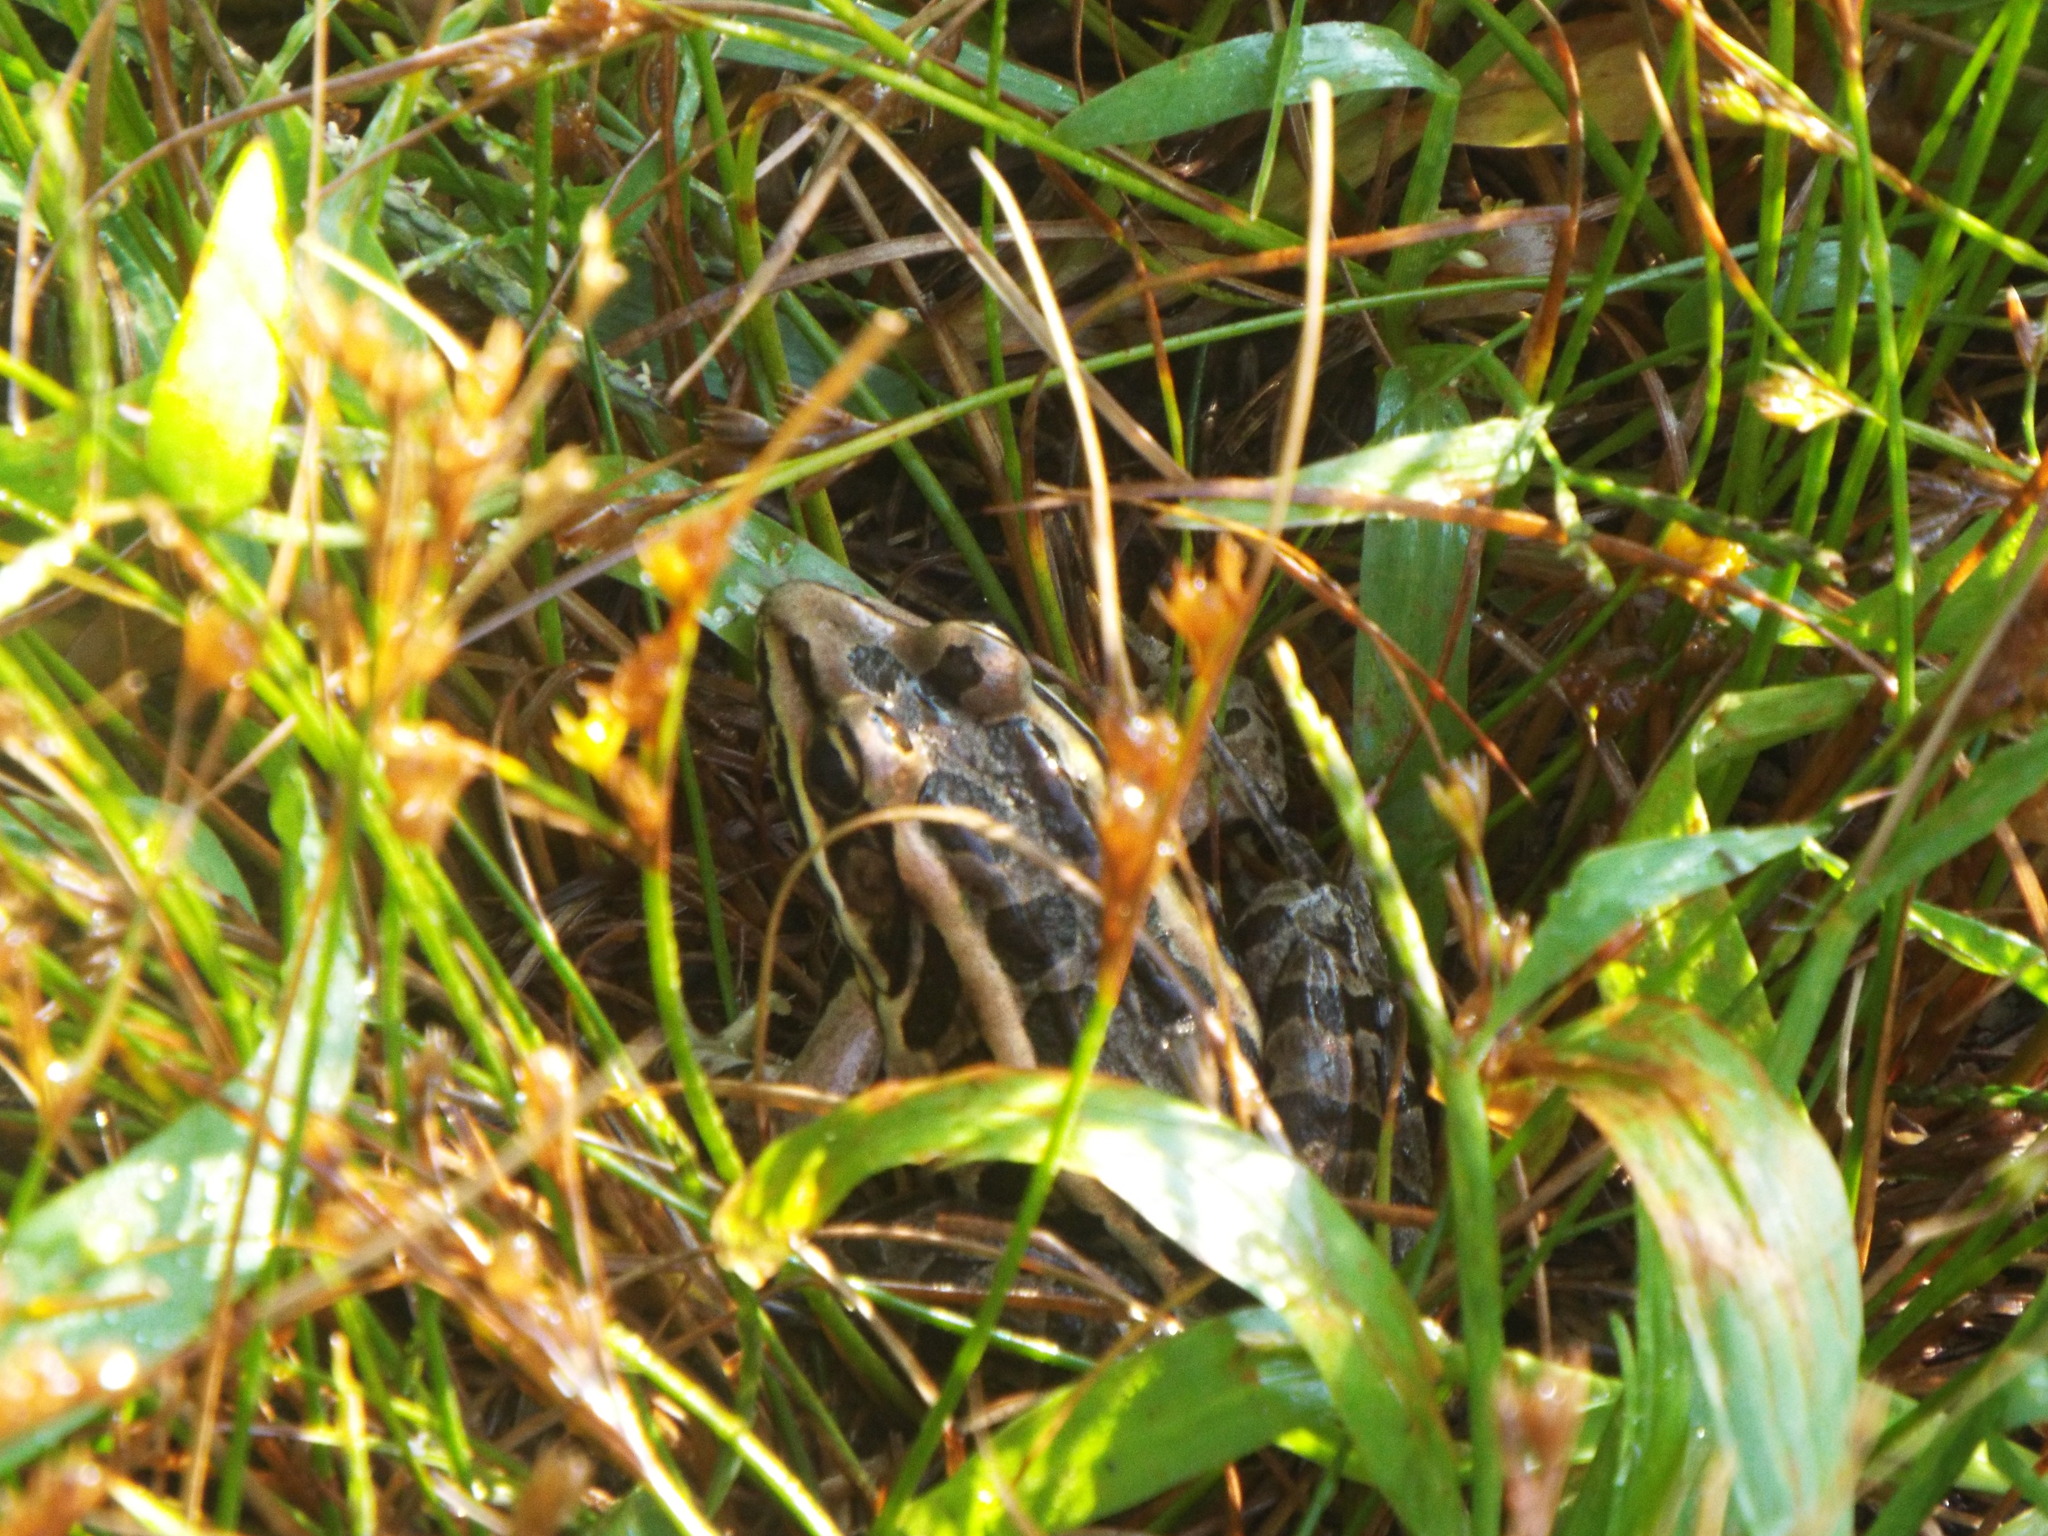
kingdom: Animalia
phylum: Chordata
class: Amphibia
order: Anura
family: Ranidae
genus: Lithobates
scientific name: Lithobates palustris
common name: Pickerel frog
